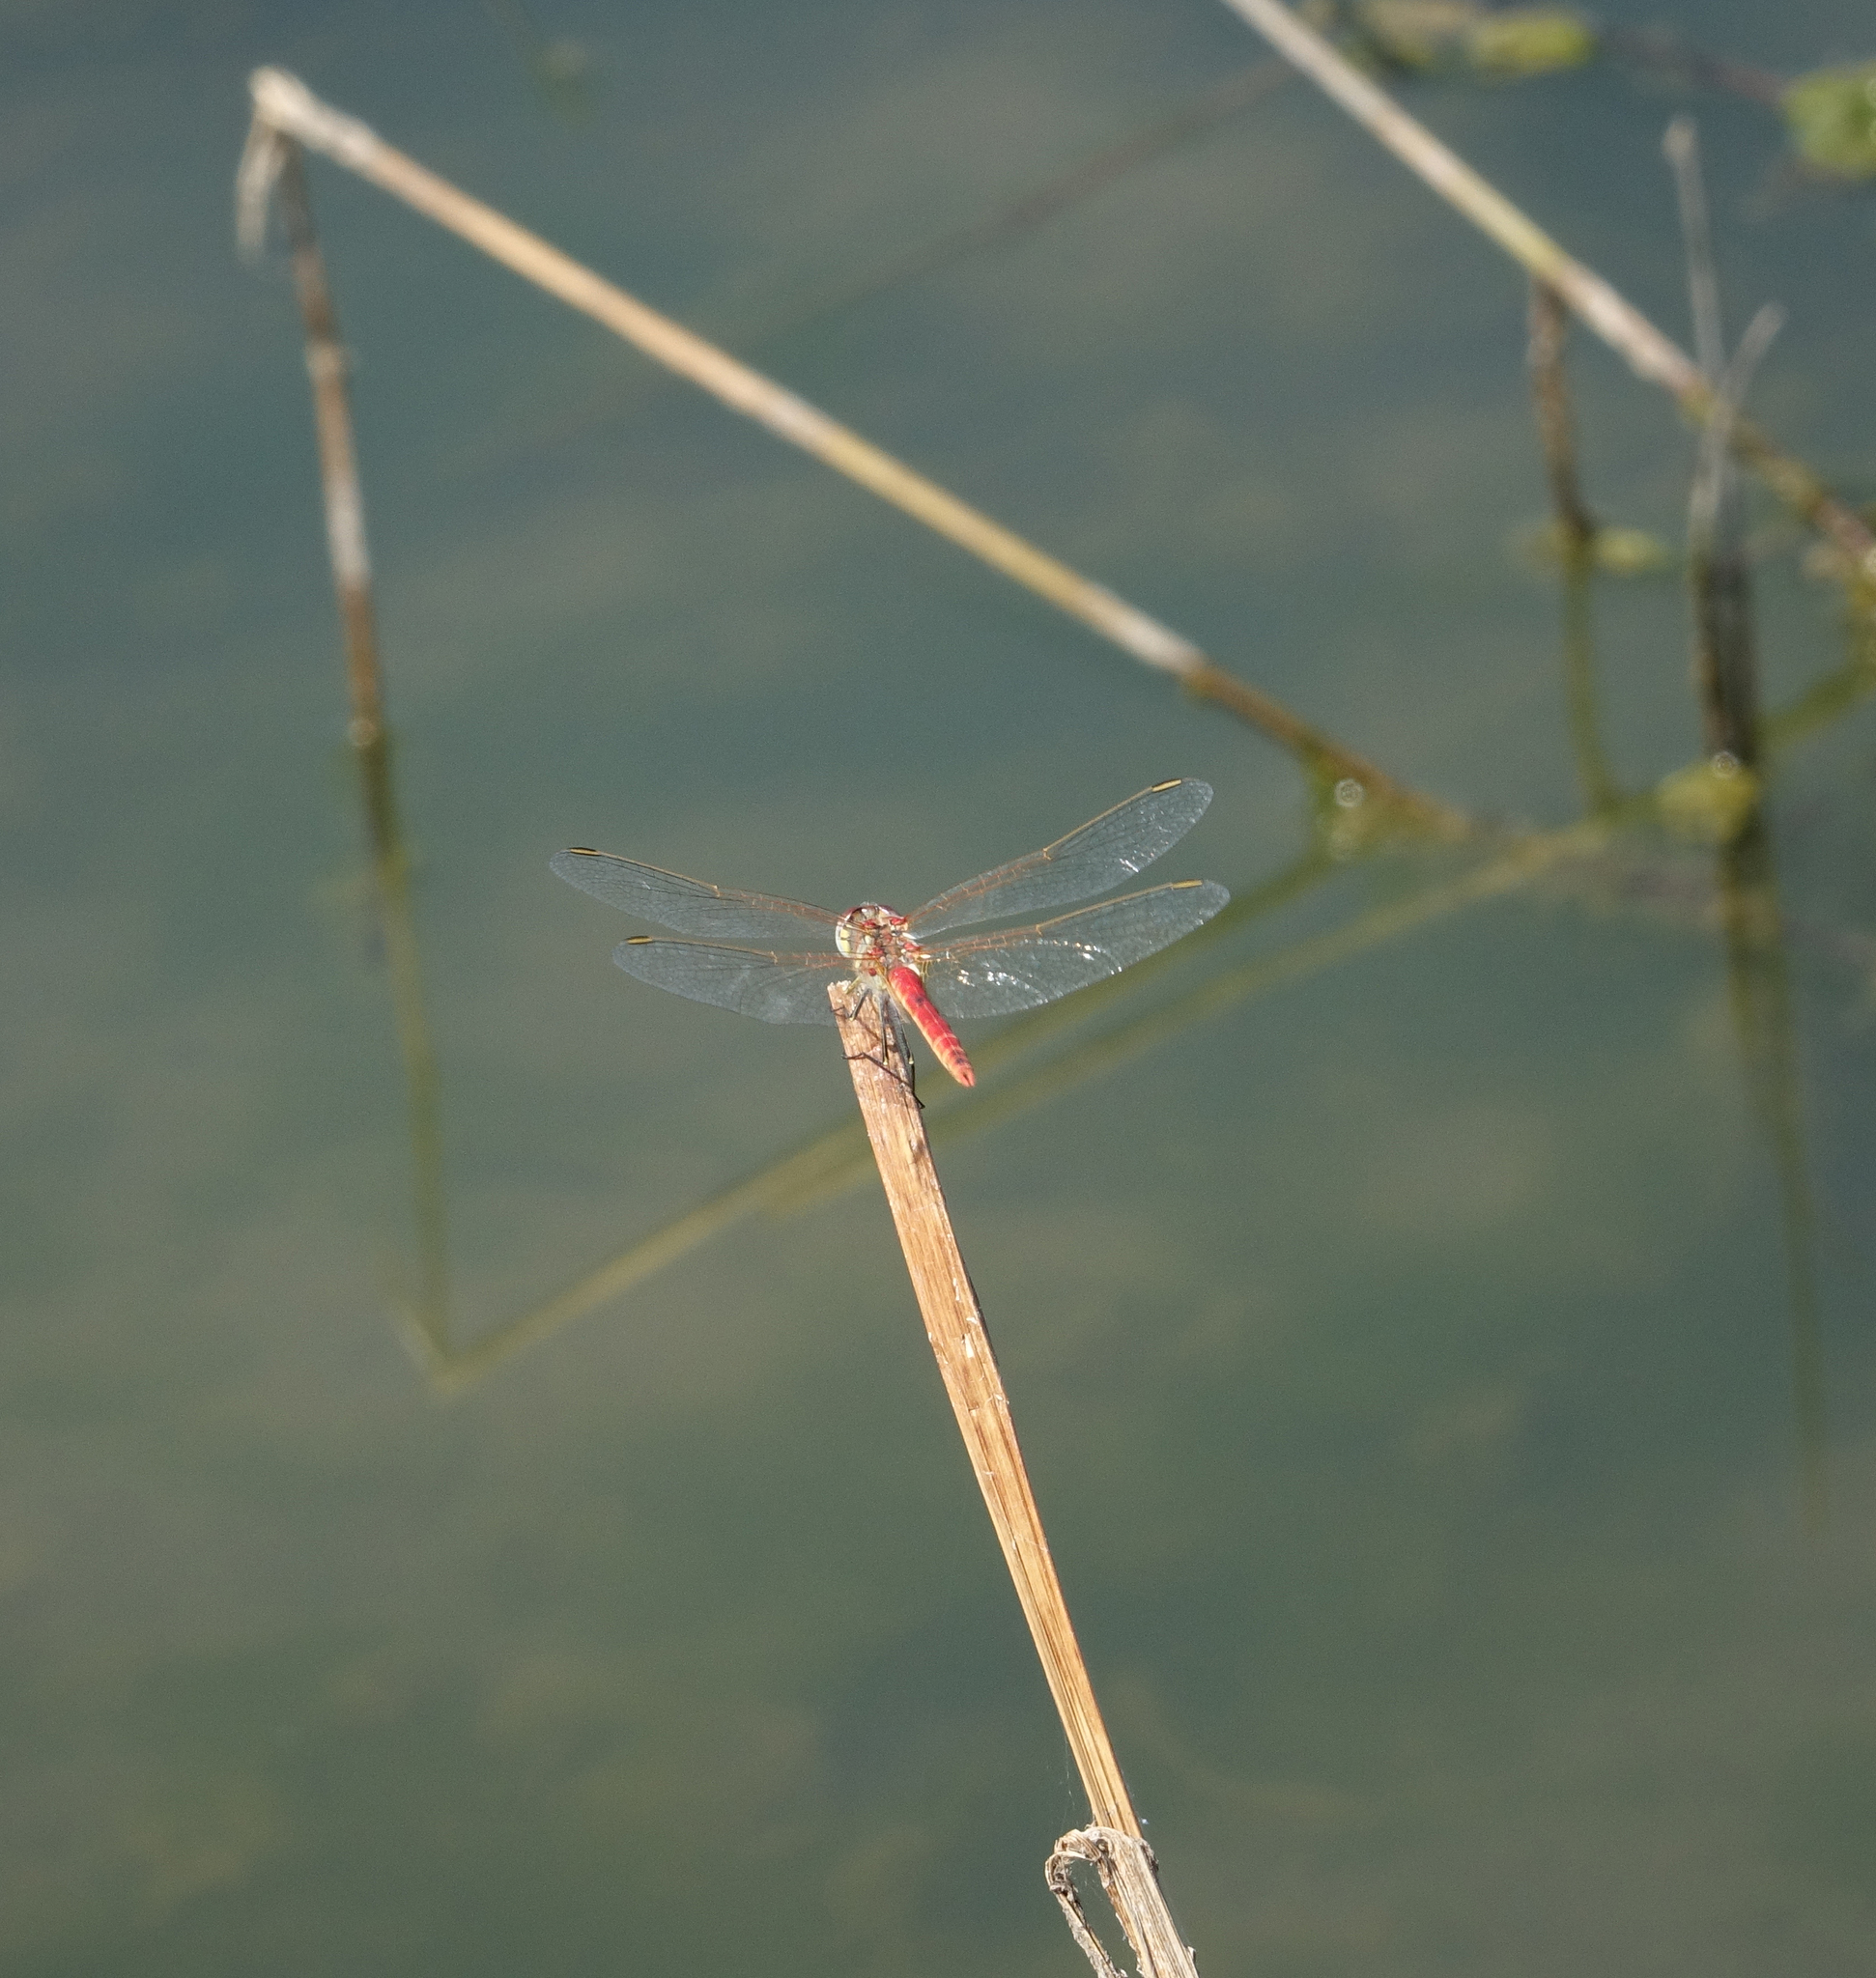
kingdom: Animalia
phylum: Arthropoda
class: Insecta
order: Odonata
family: Libellulidae
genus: Sympetrum
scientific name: Sympetrum fonscolombii
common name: Red-veined darter
